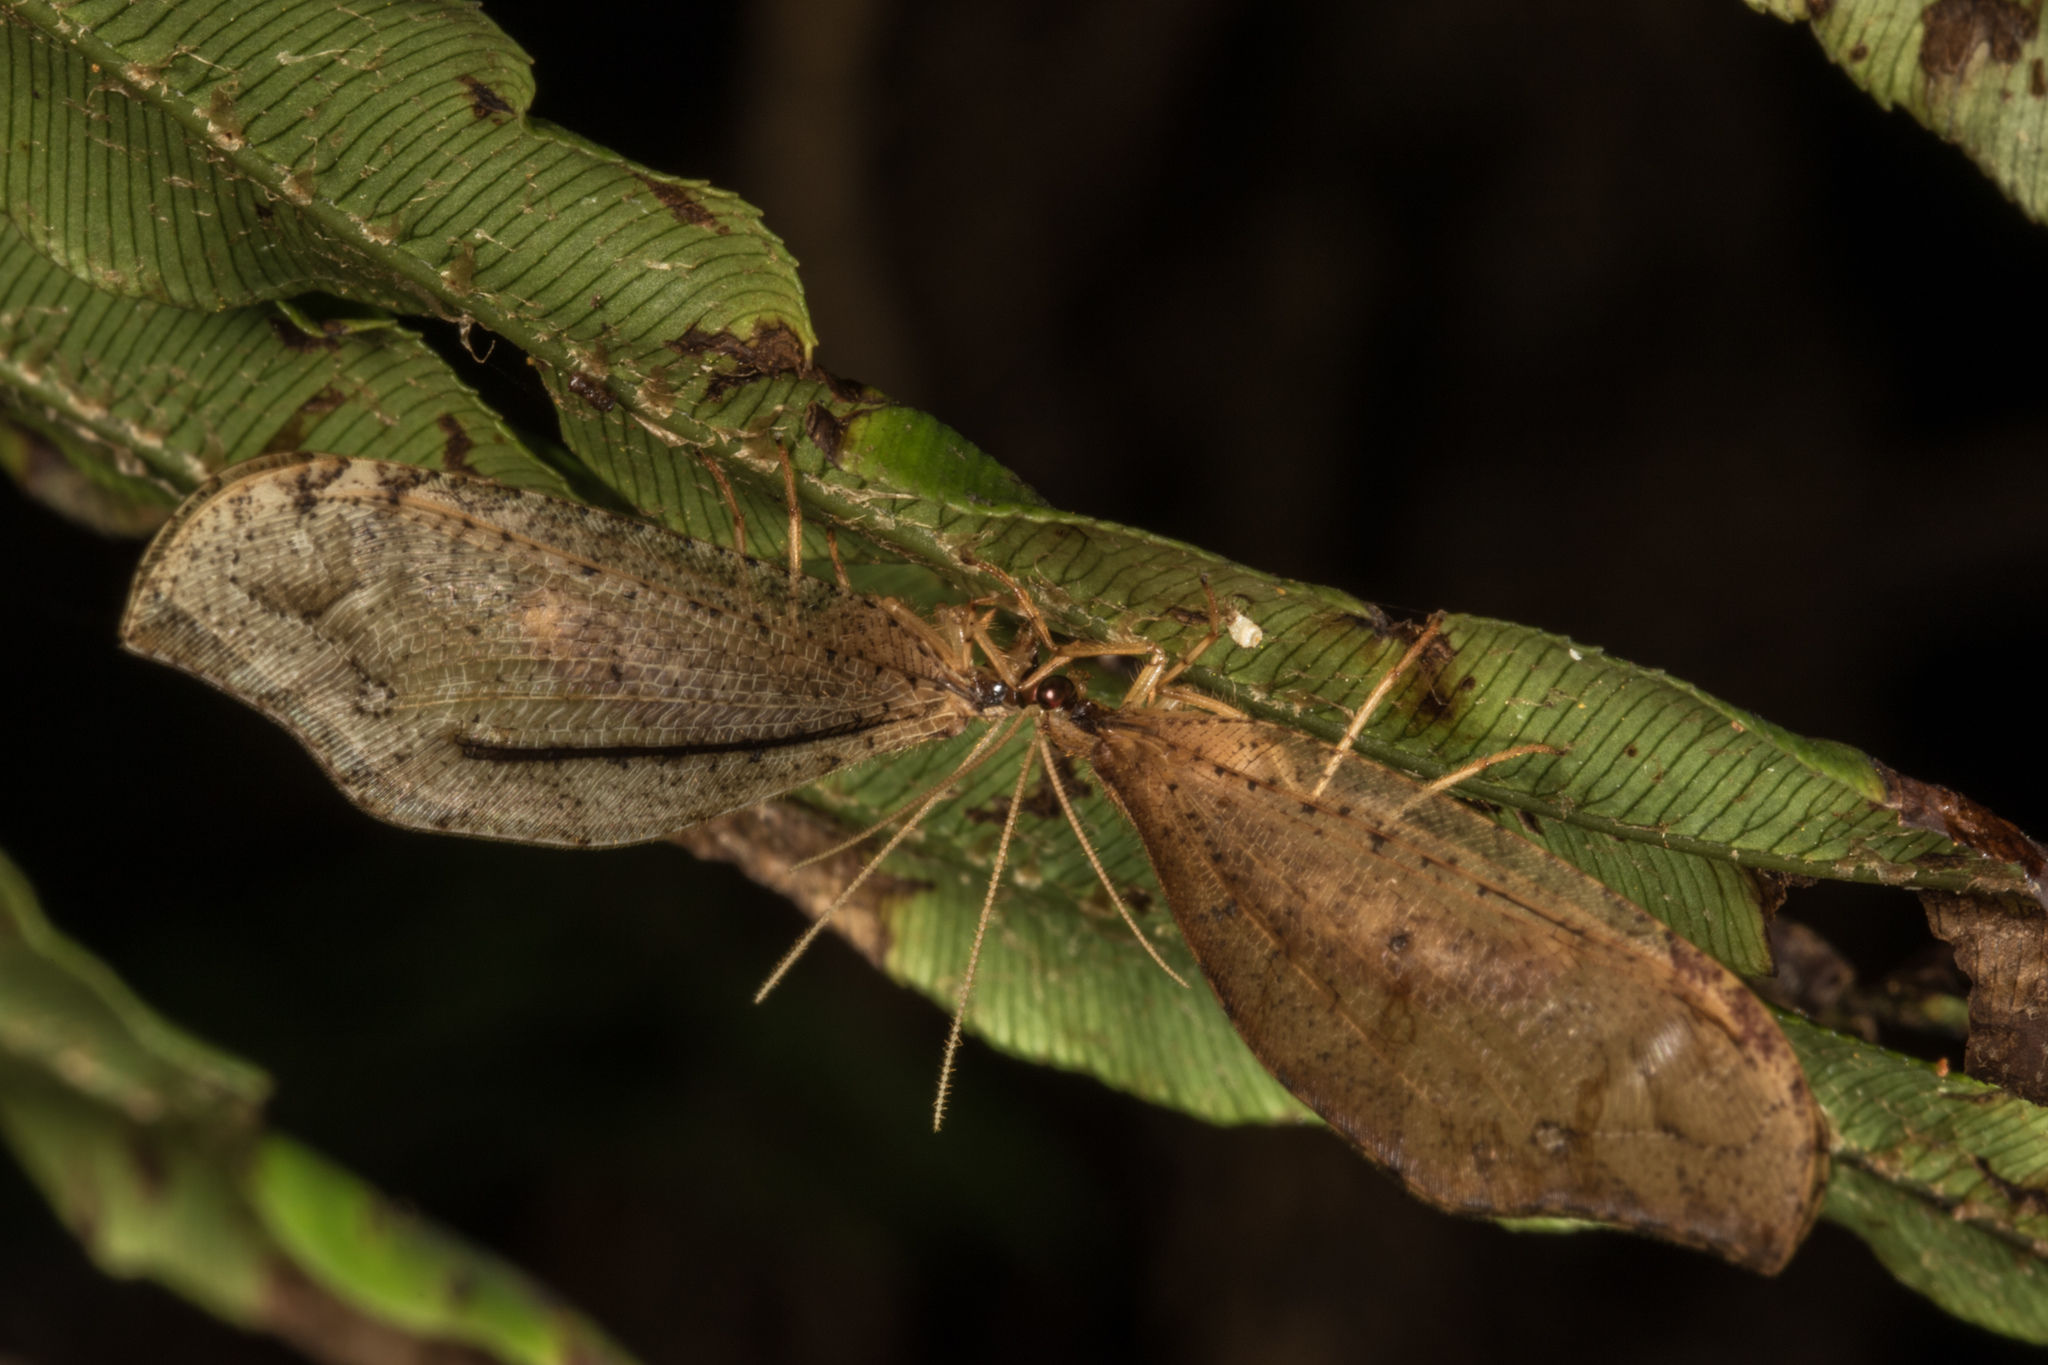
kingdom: Animalia
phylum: Arthropoda
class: Insecta
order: Neuroptera
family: Osmylidae
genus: Kempynus
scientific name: Kempynus incisus
